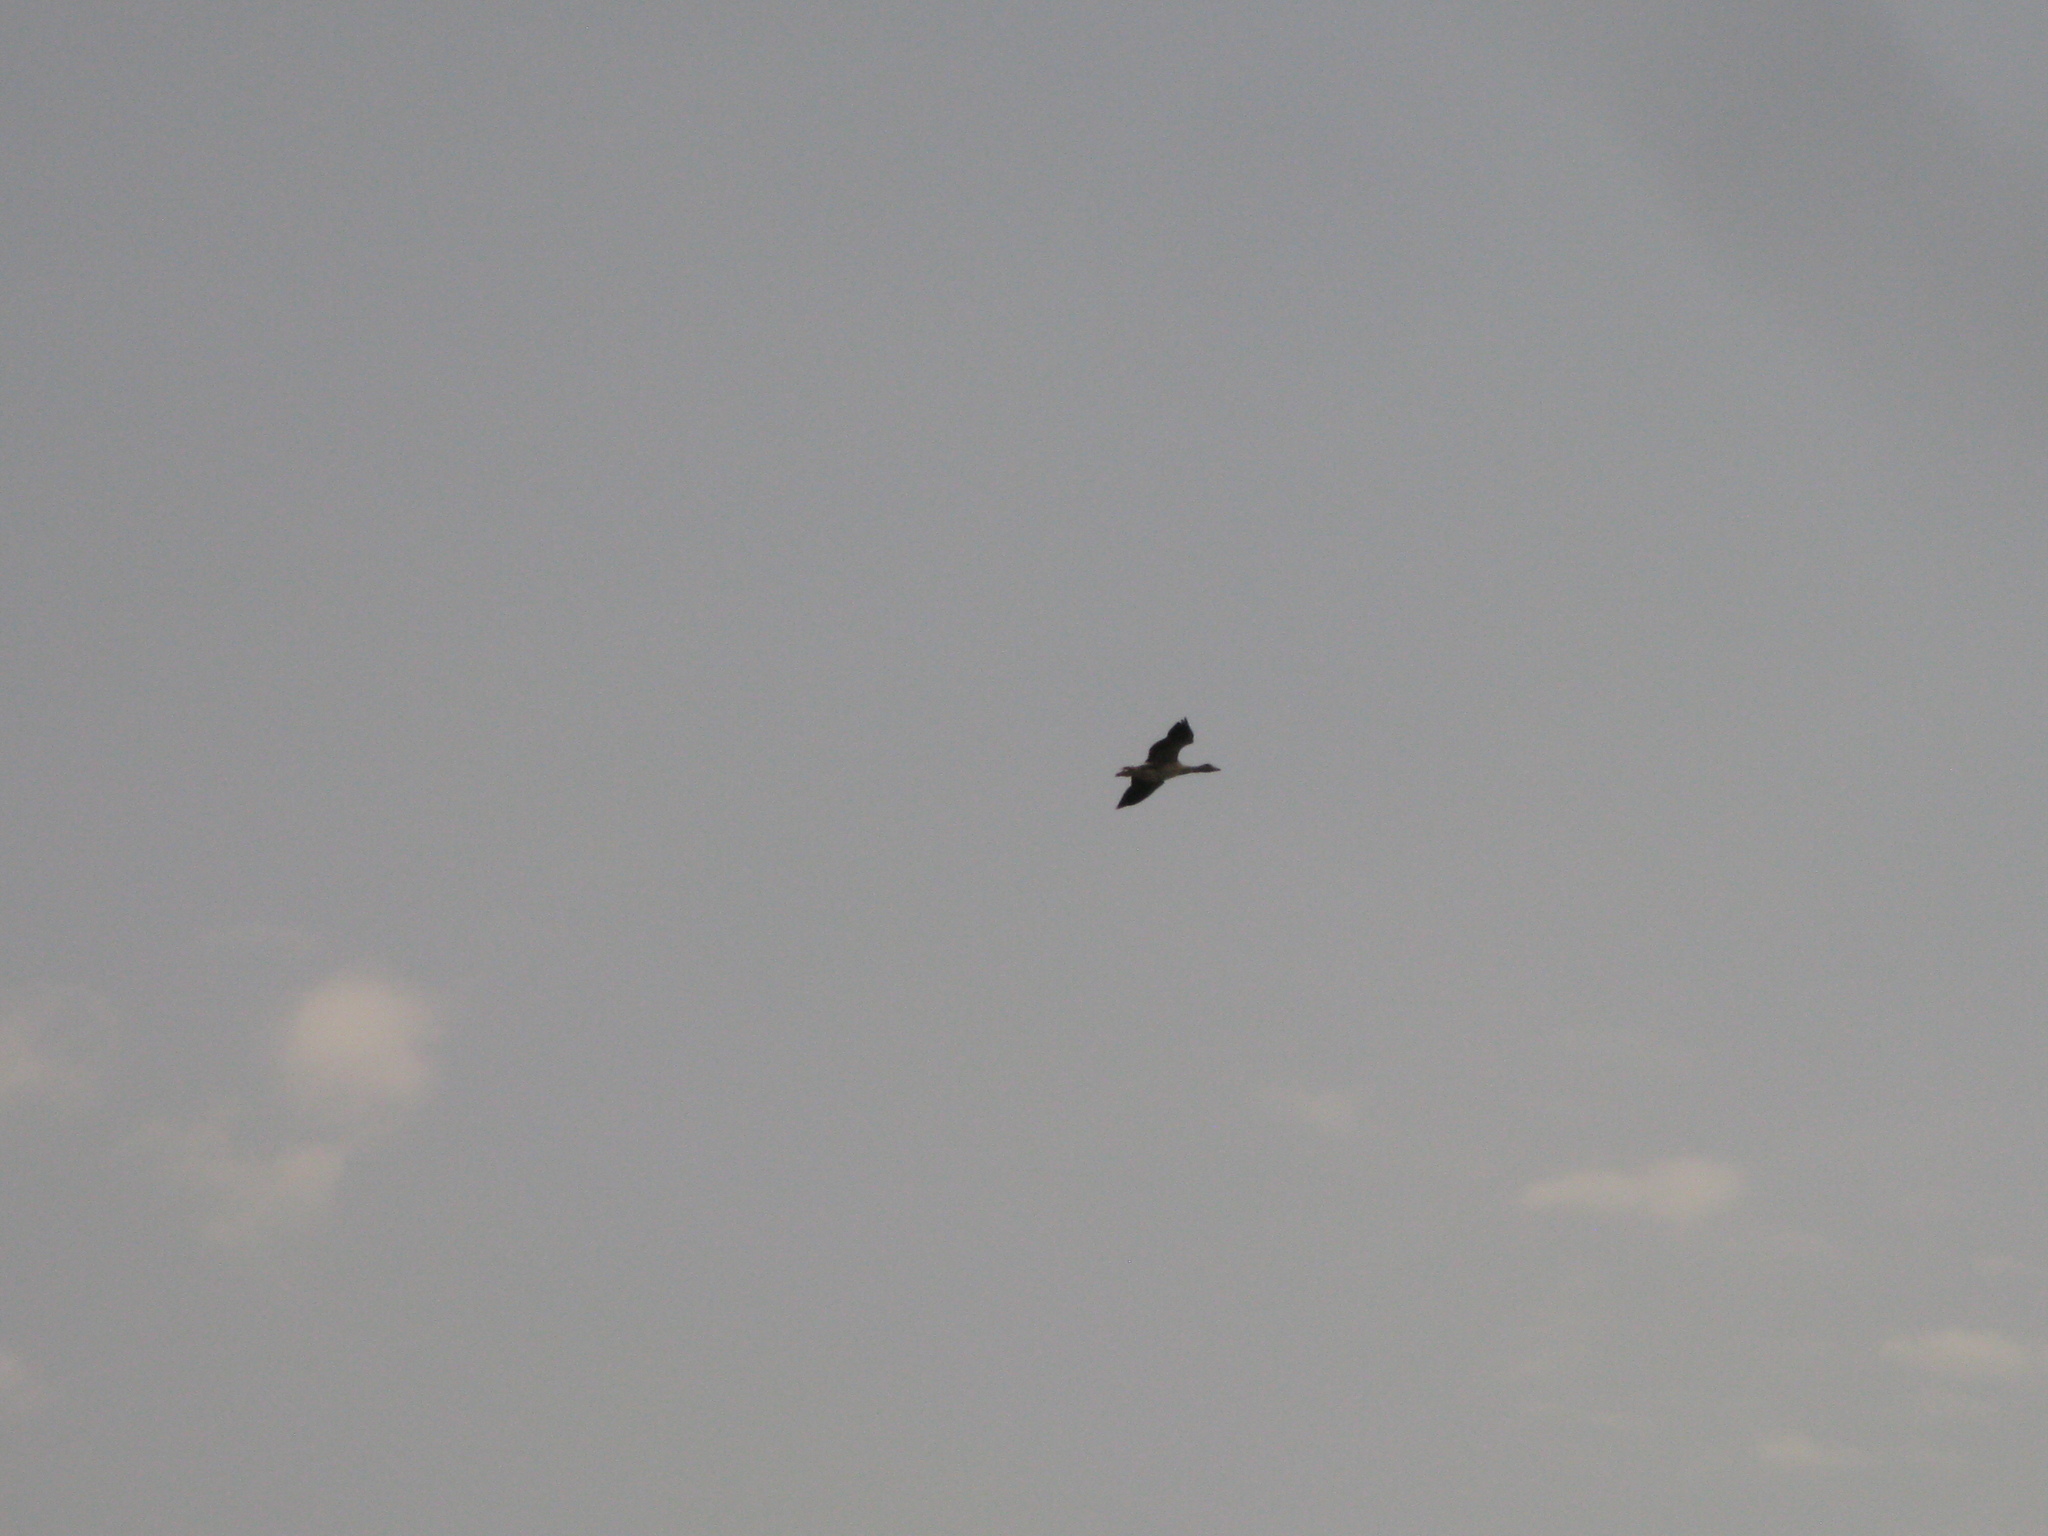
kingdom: Animalia
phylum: Chordata
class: Aves
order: Anseriformes
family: Anatidae
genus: Anser
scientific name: Anser anser
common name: Greylag goose
